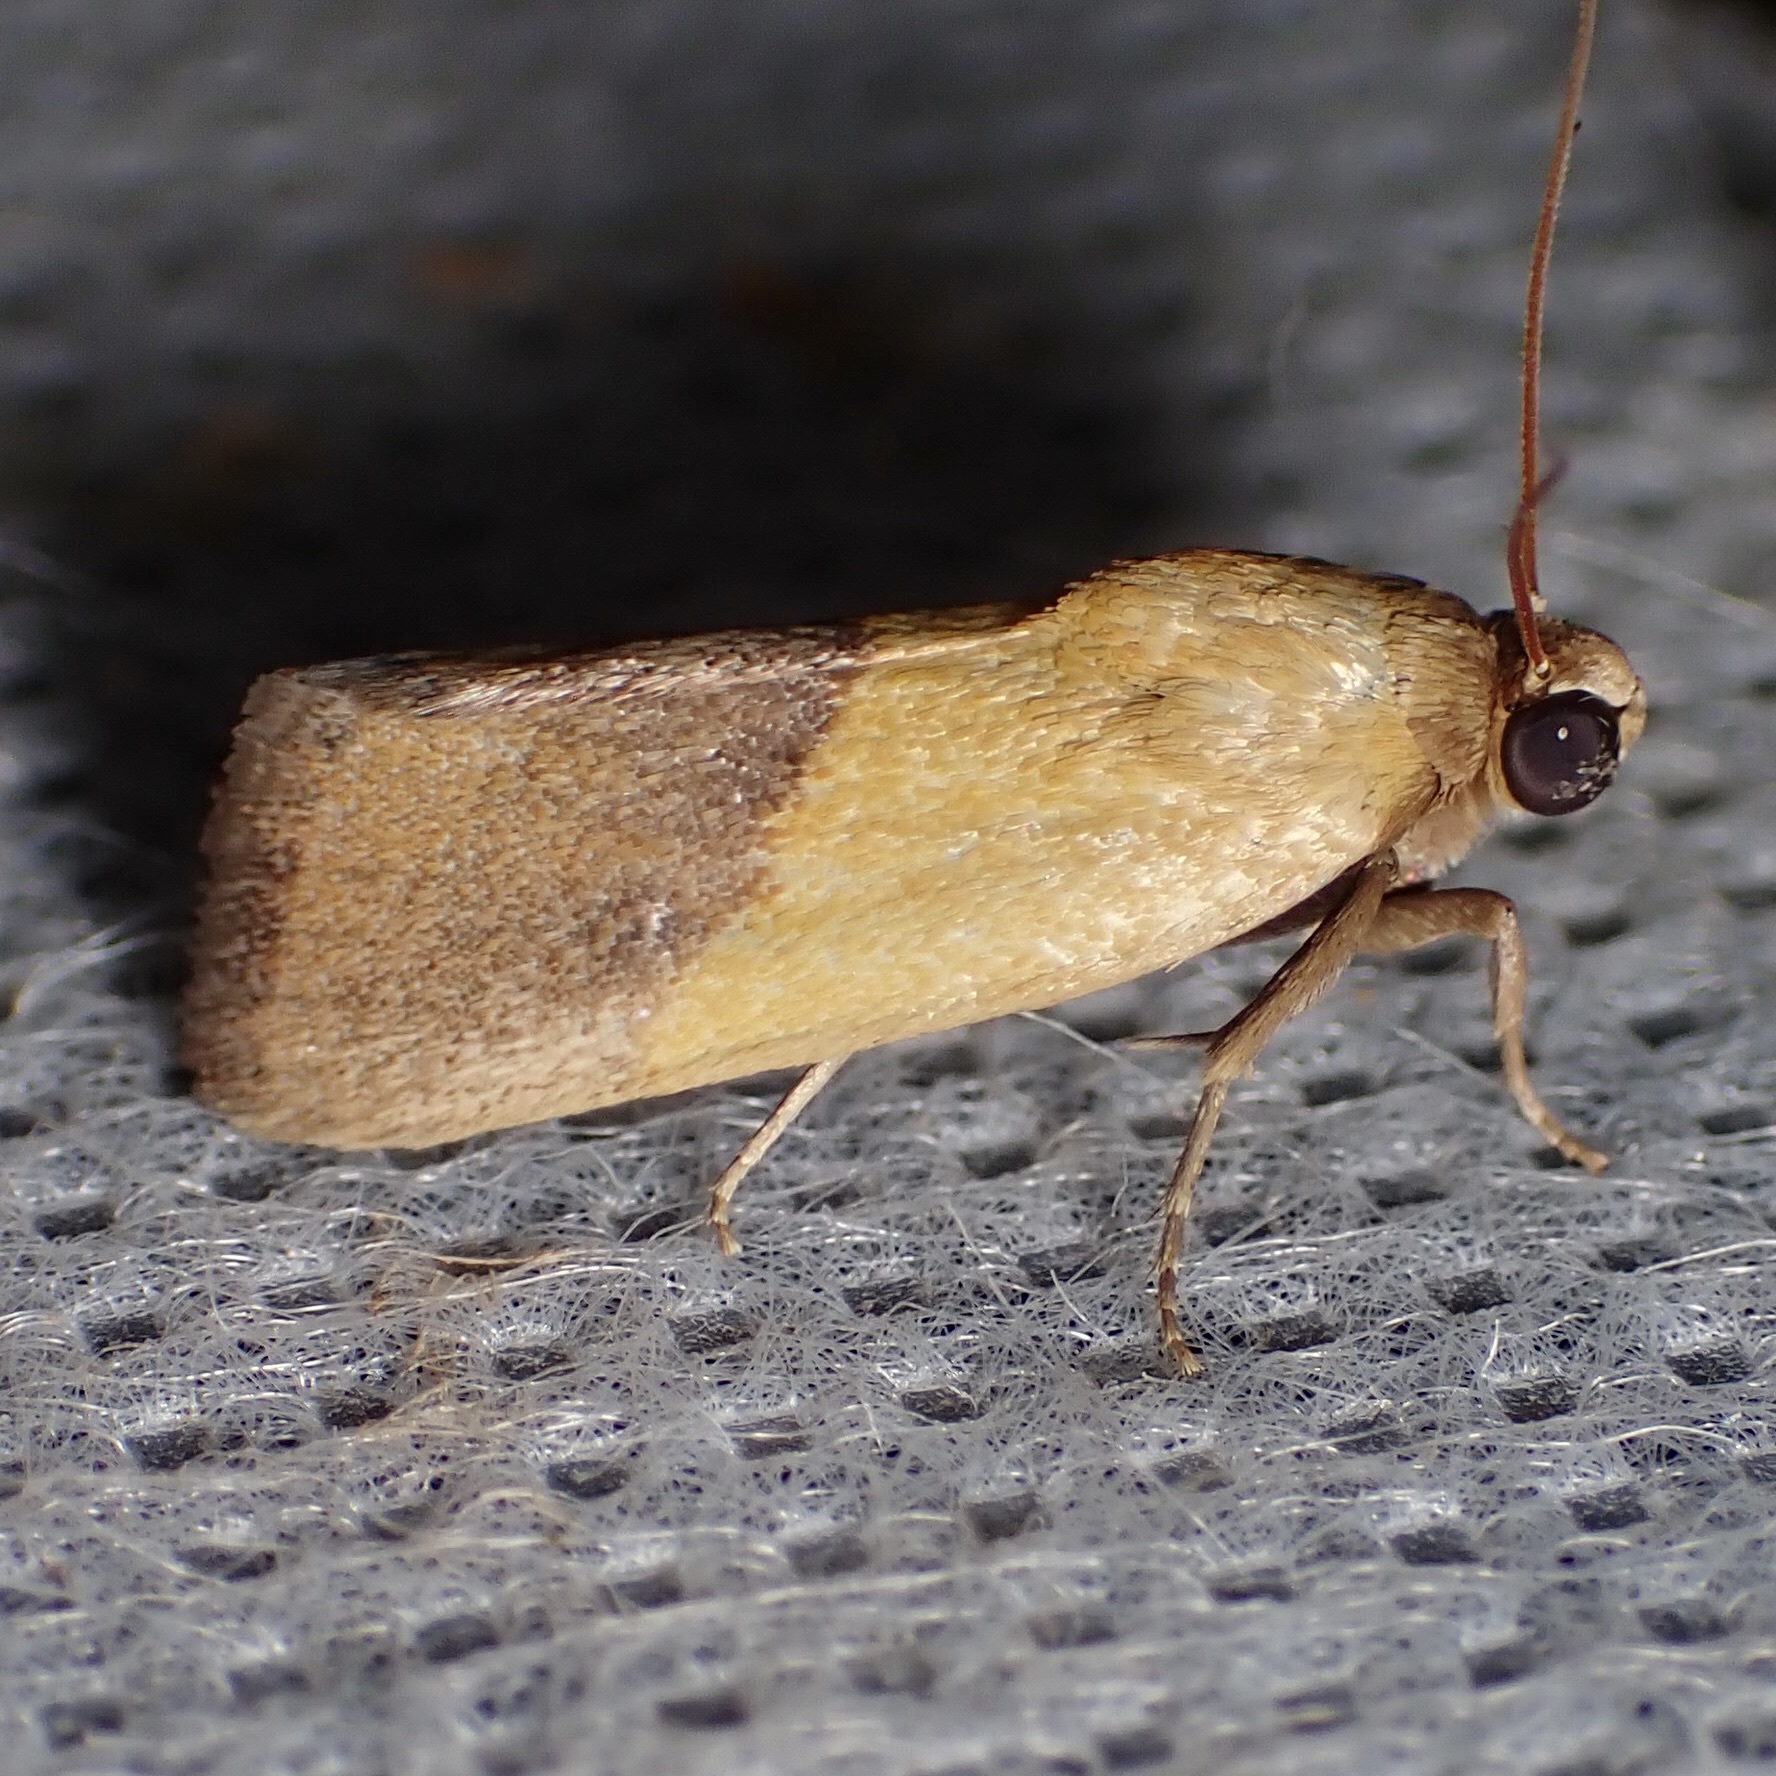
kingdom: Animalia
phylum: Arthropoda
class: Insecta
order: Lepidoptera
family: Noctuidae
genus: Acontia
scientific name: Acontia bicolorata
